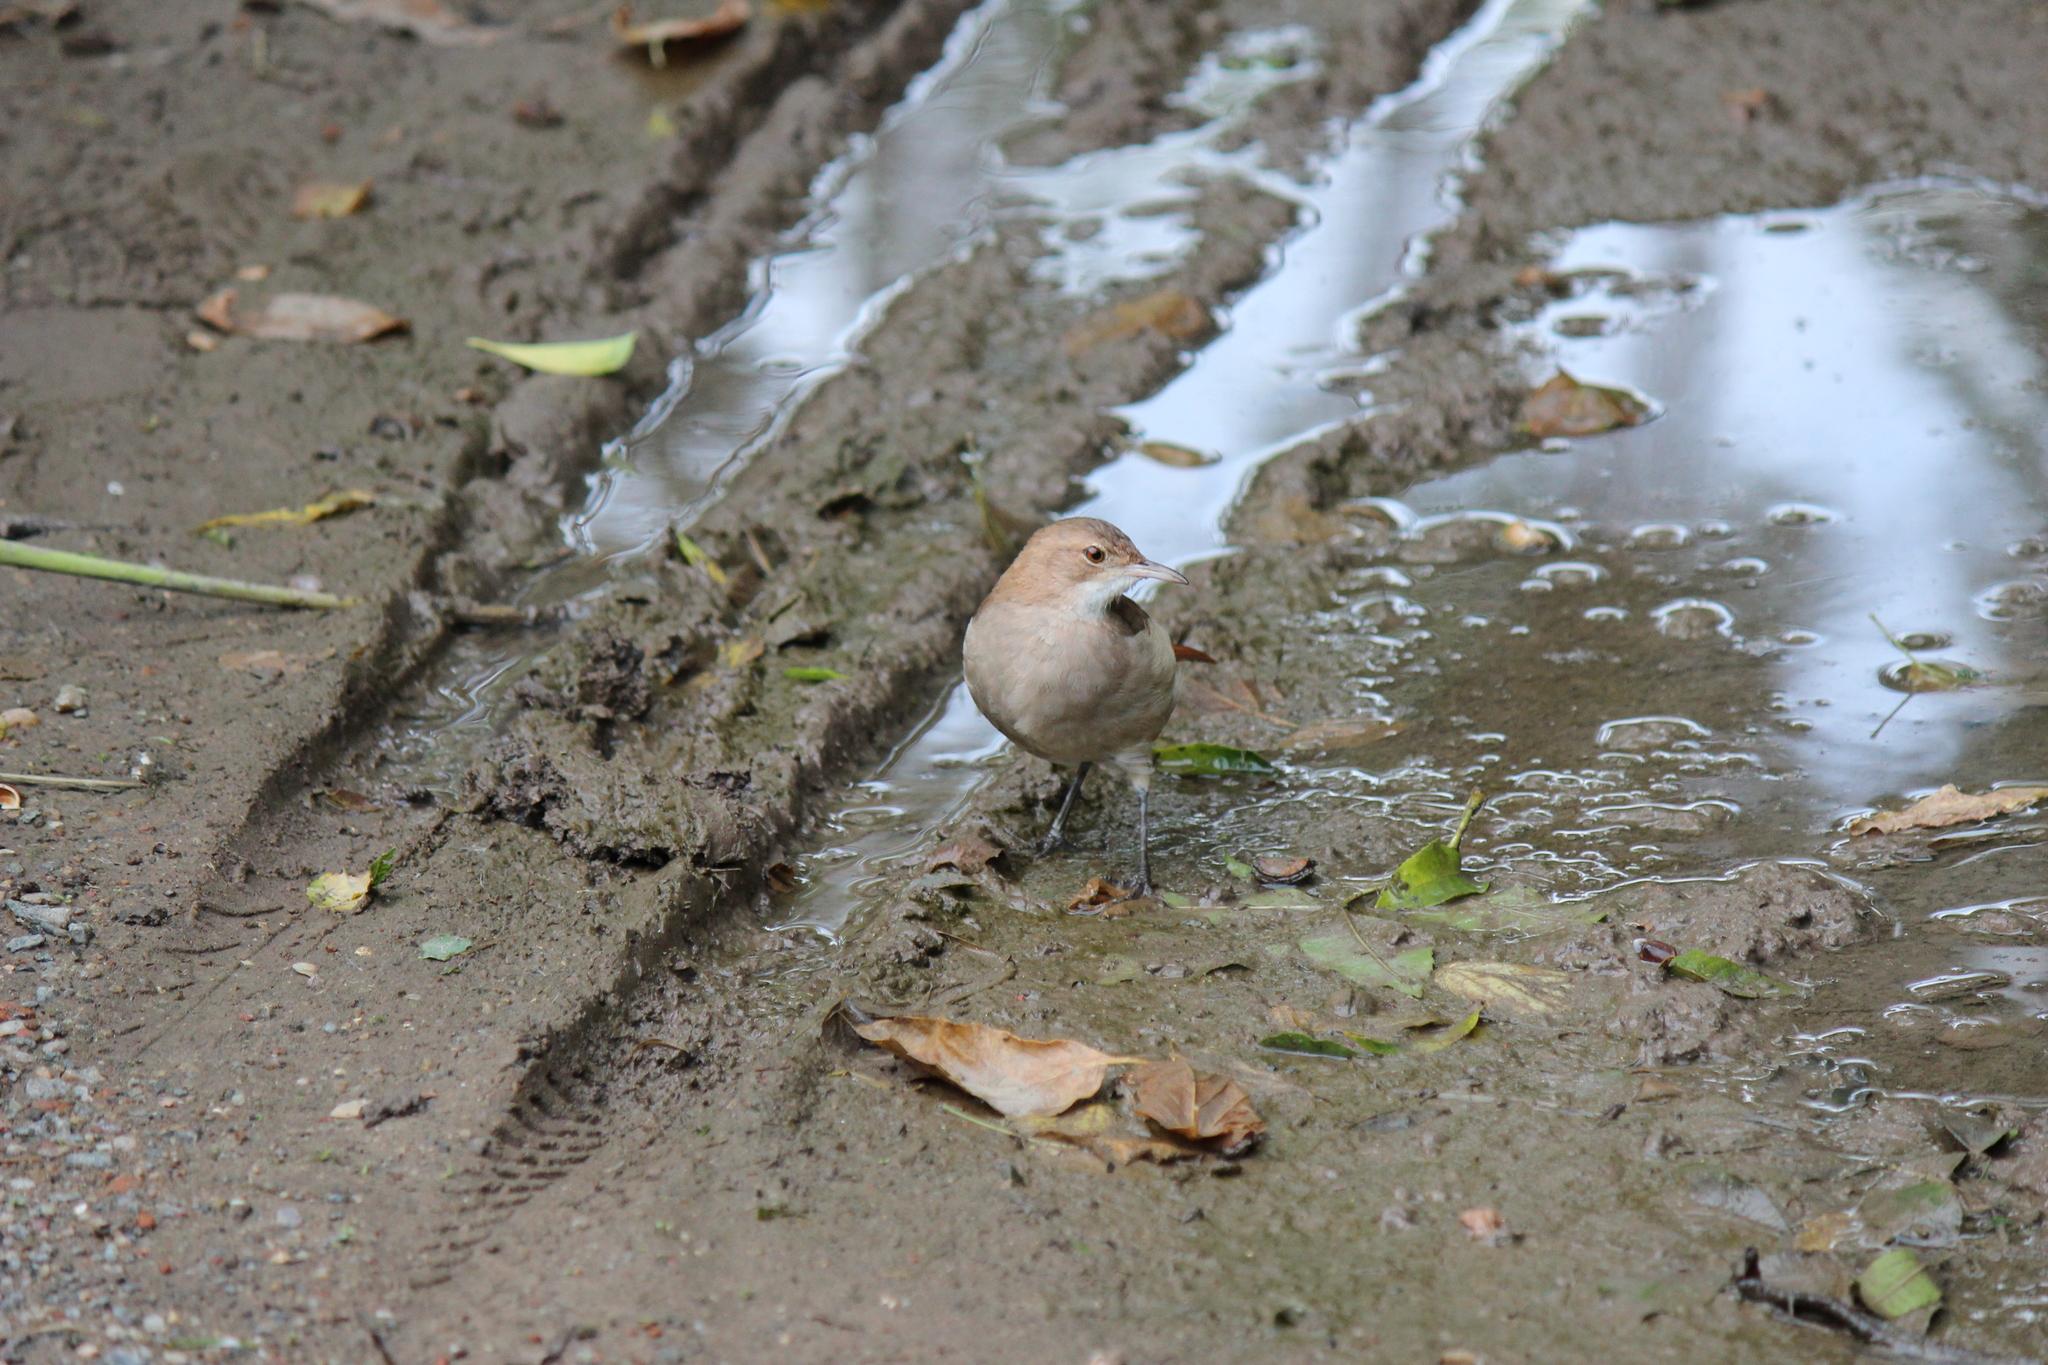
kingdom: Animalia
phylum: Chordata
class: Aves
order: Passeriformes
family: Furnariidae
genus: Furnarius
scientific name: Furnarius rufus
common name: Rufous hornero
